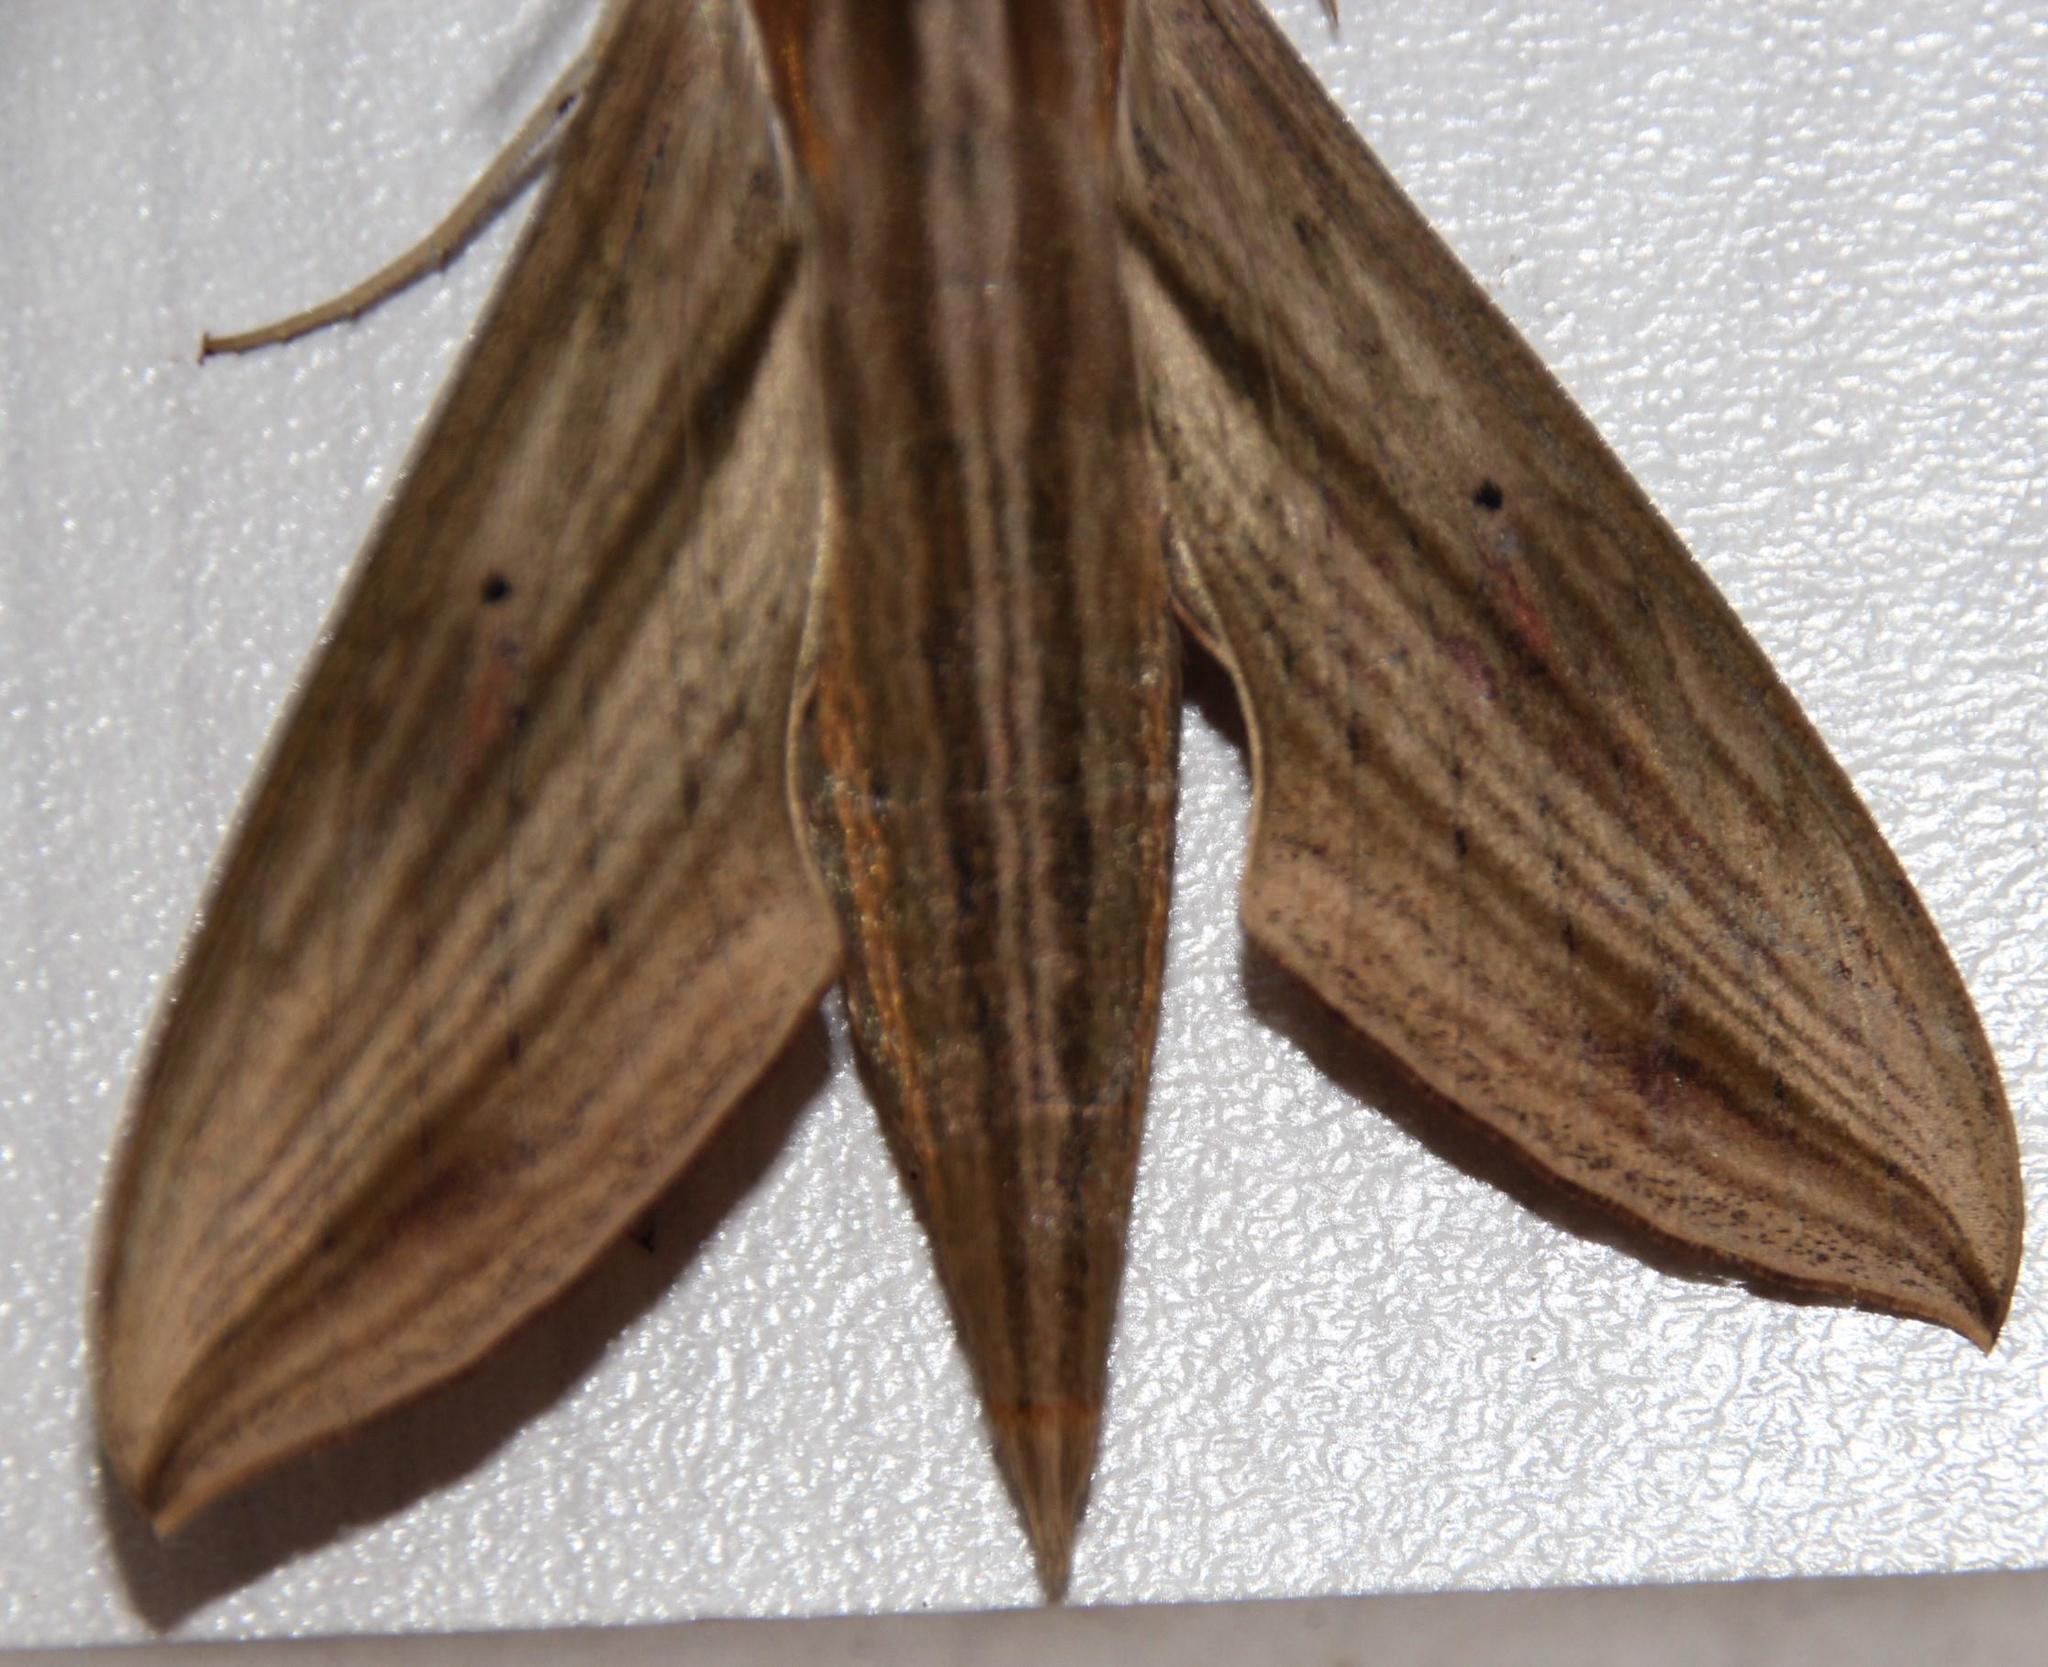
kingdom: Animalia
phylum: Arthropoda
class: Insecta
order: Lepidoptera
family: Sphingidae
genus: Hippotion
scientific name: Hippotion eson
